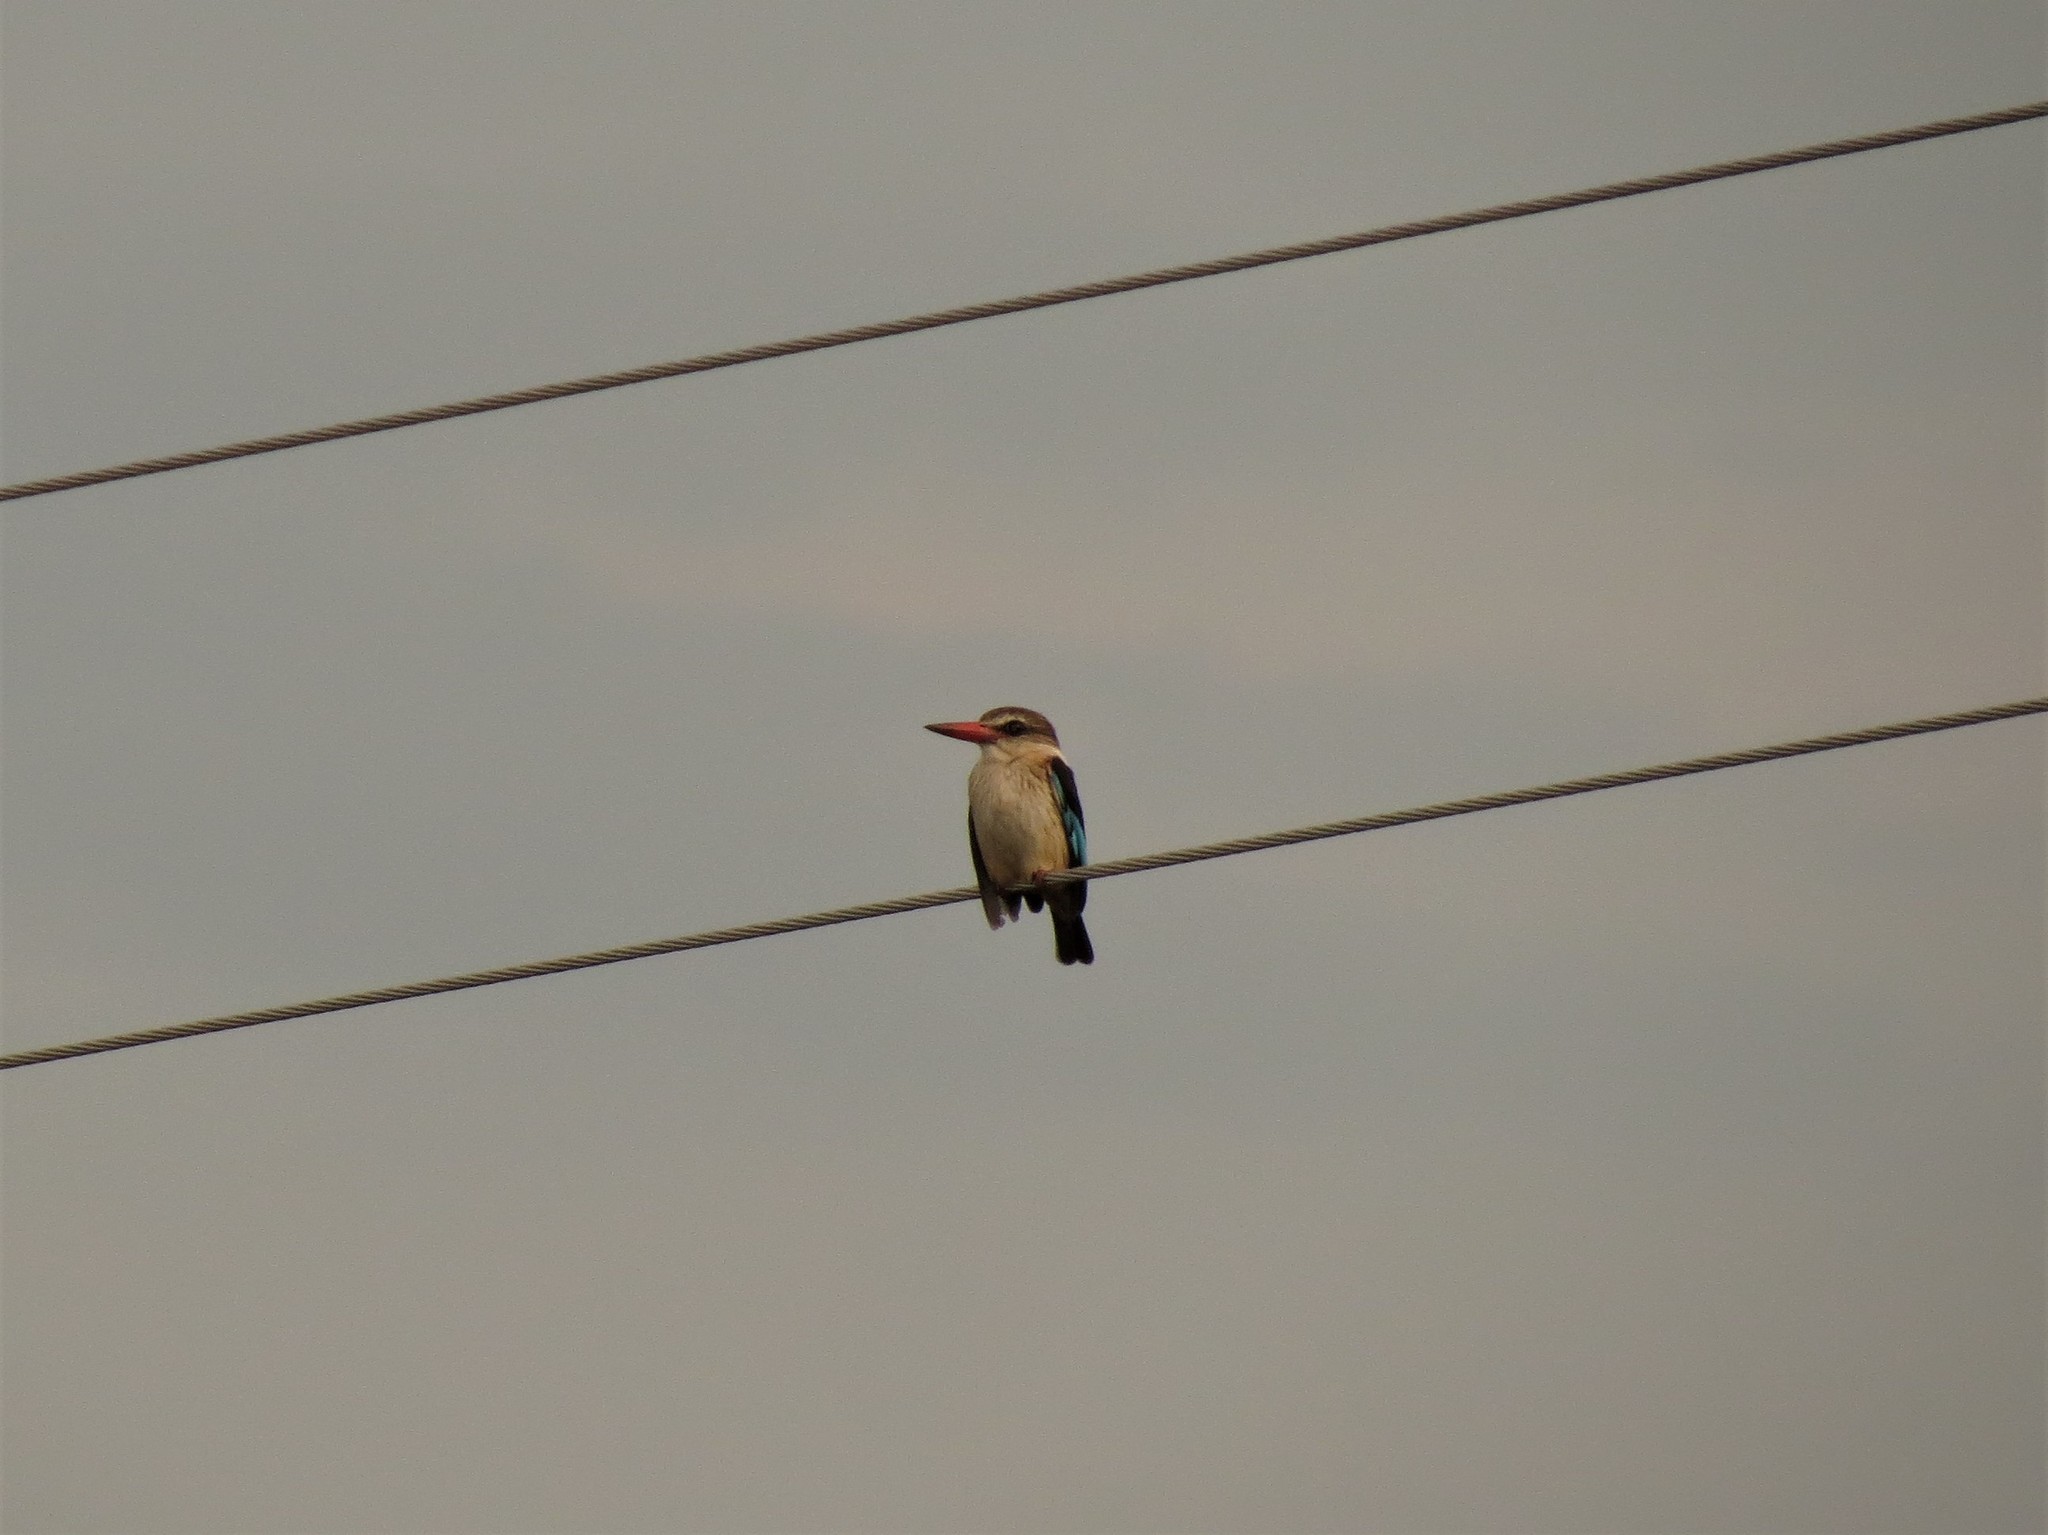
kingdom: Animalia
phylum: Chordata
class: Aves
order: Coraciiformes
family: Alcedinidae
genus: Halcyon
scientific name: Halcyon albiventris
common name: Brown-hooded kingfisher
